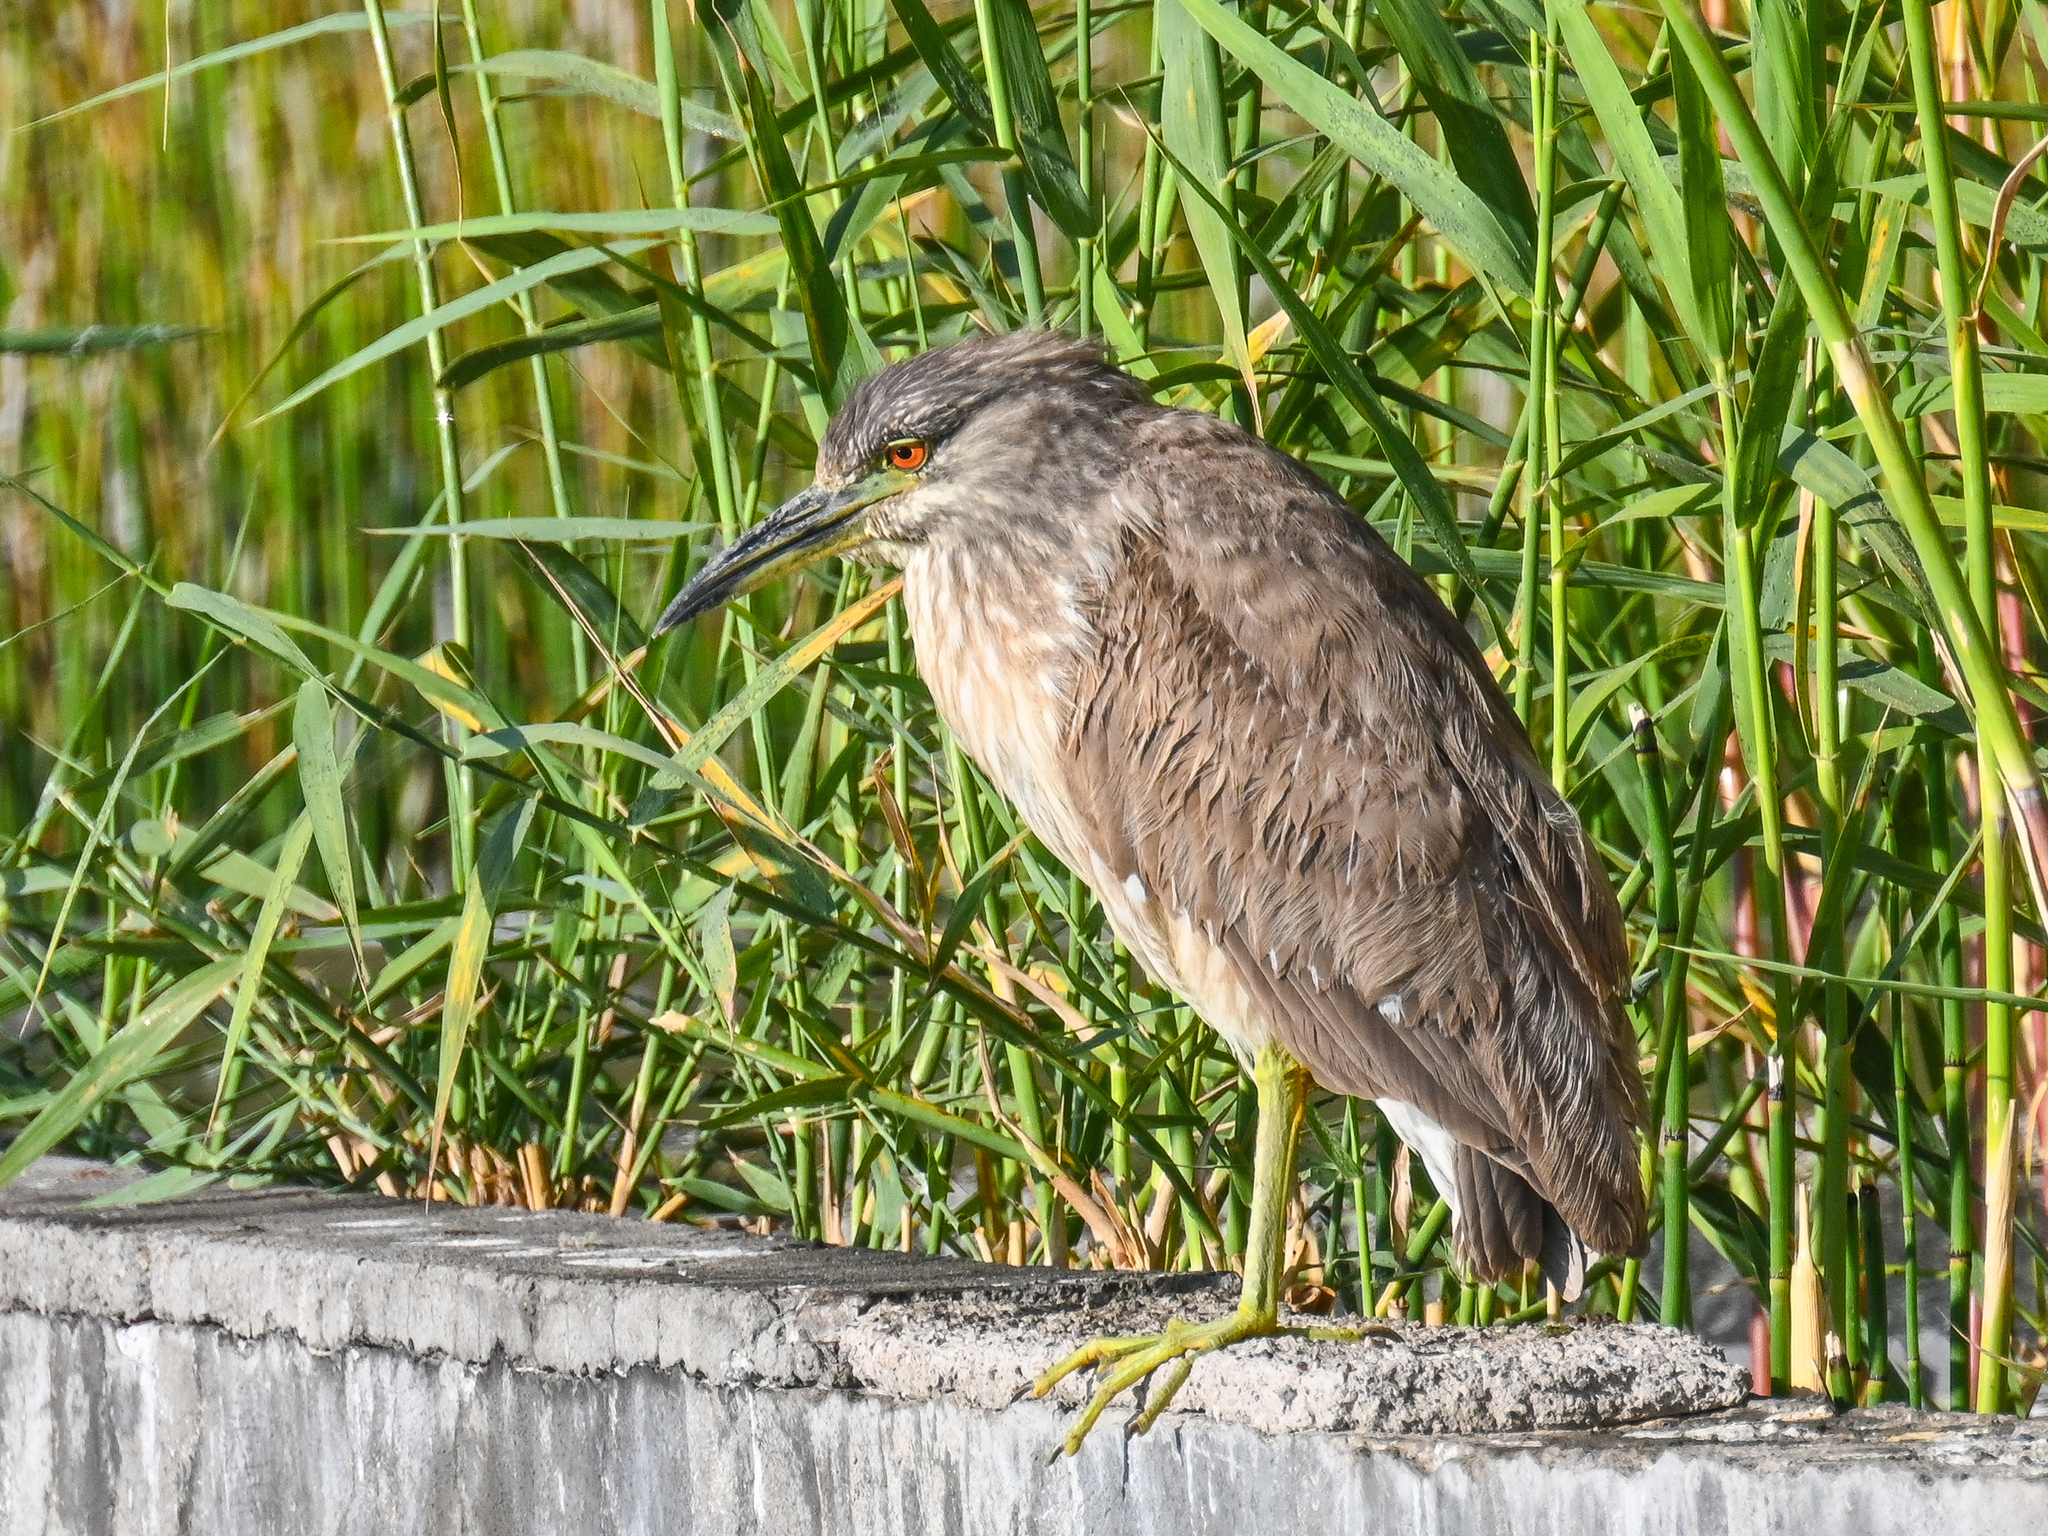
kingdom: Animalia
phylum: Chordata
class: Aves
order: Pelecaniformes
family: Ardeidae
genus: Nycticorax
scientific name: Nycticorax nycticorax
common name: Black-crowned night heron
